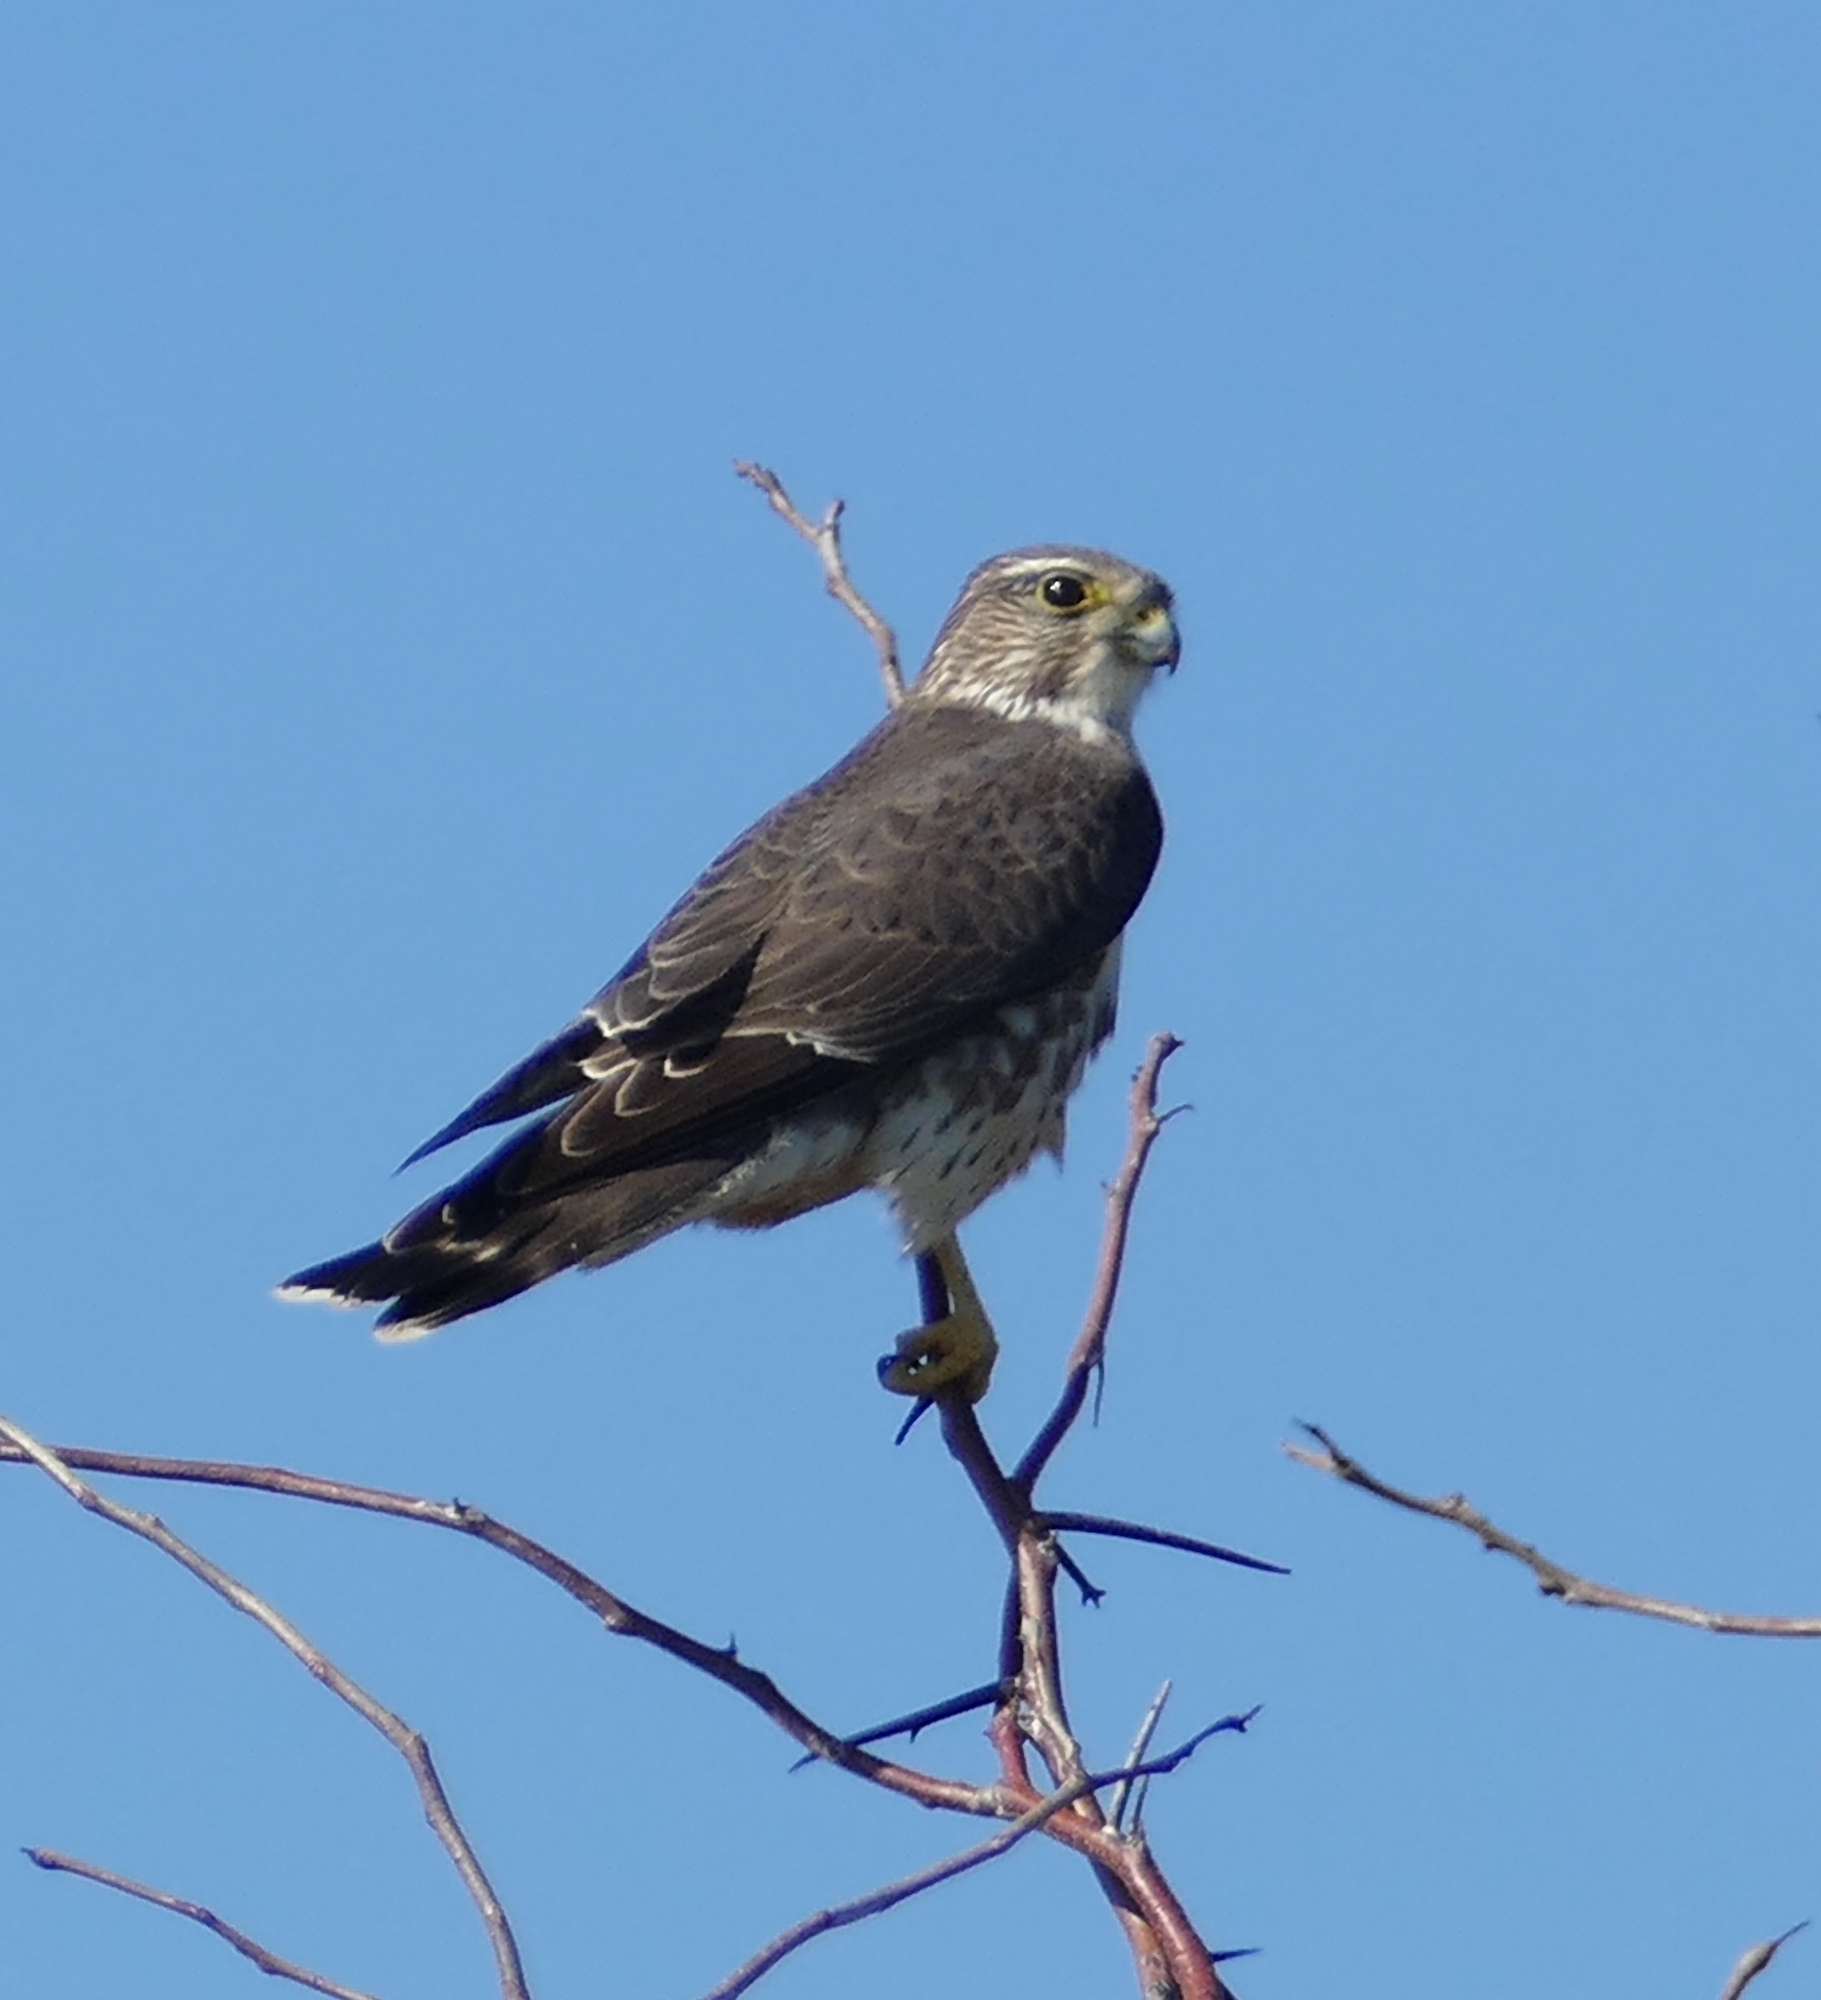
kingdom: Animalia
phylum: Chordata
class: Aves
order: Falconiformes
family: Falconidae
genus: Falco
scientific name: Falco columbarius
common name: Merlin
